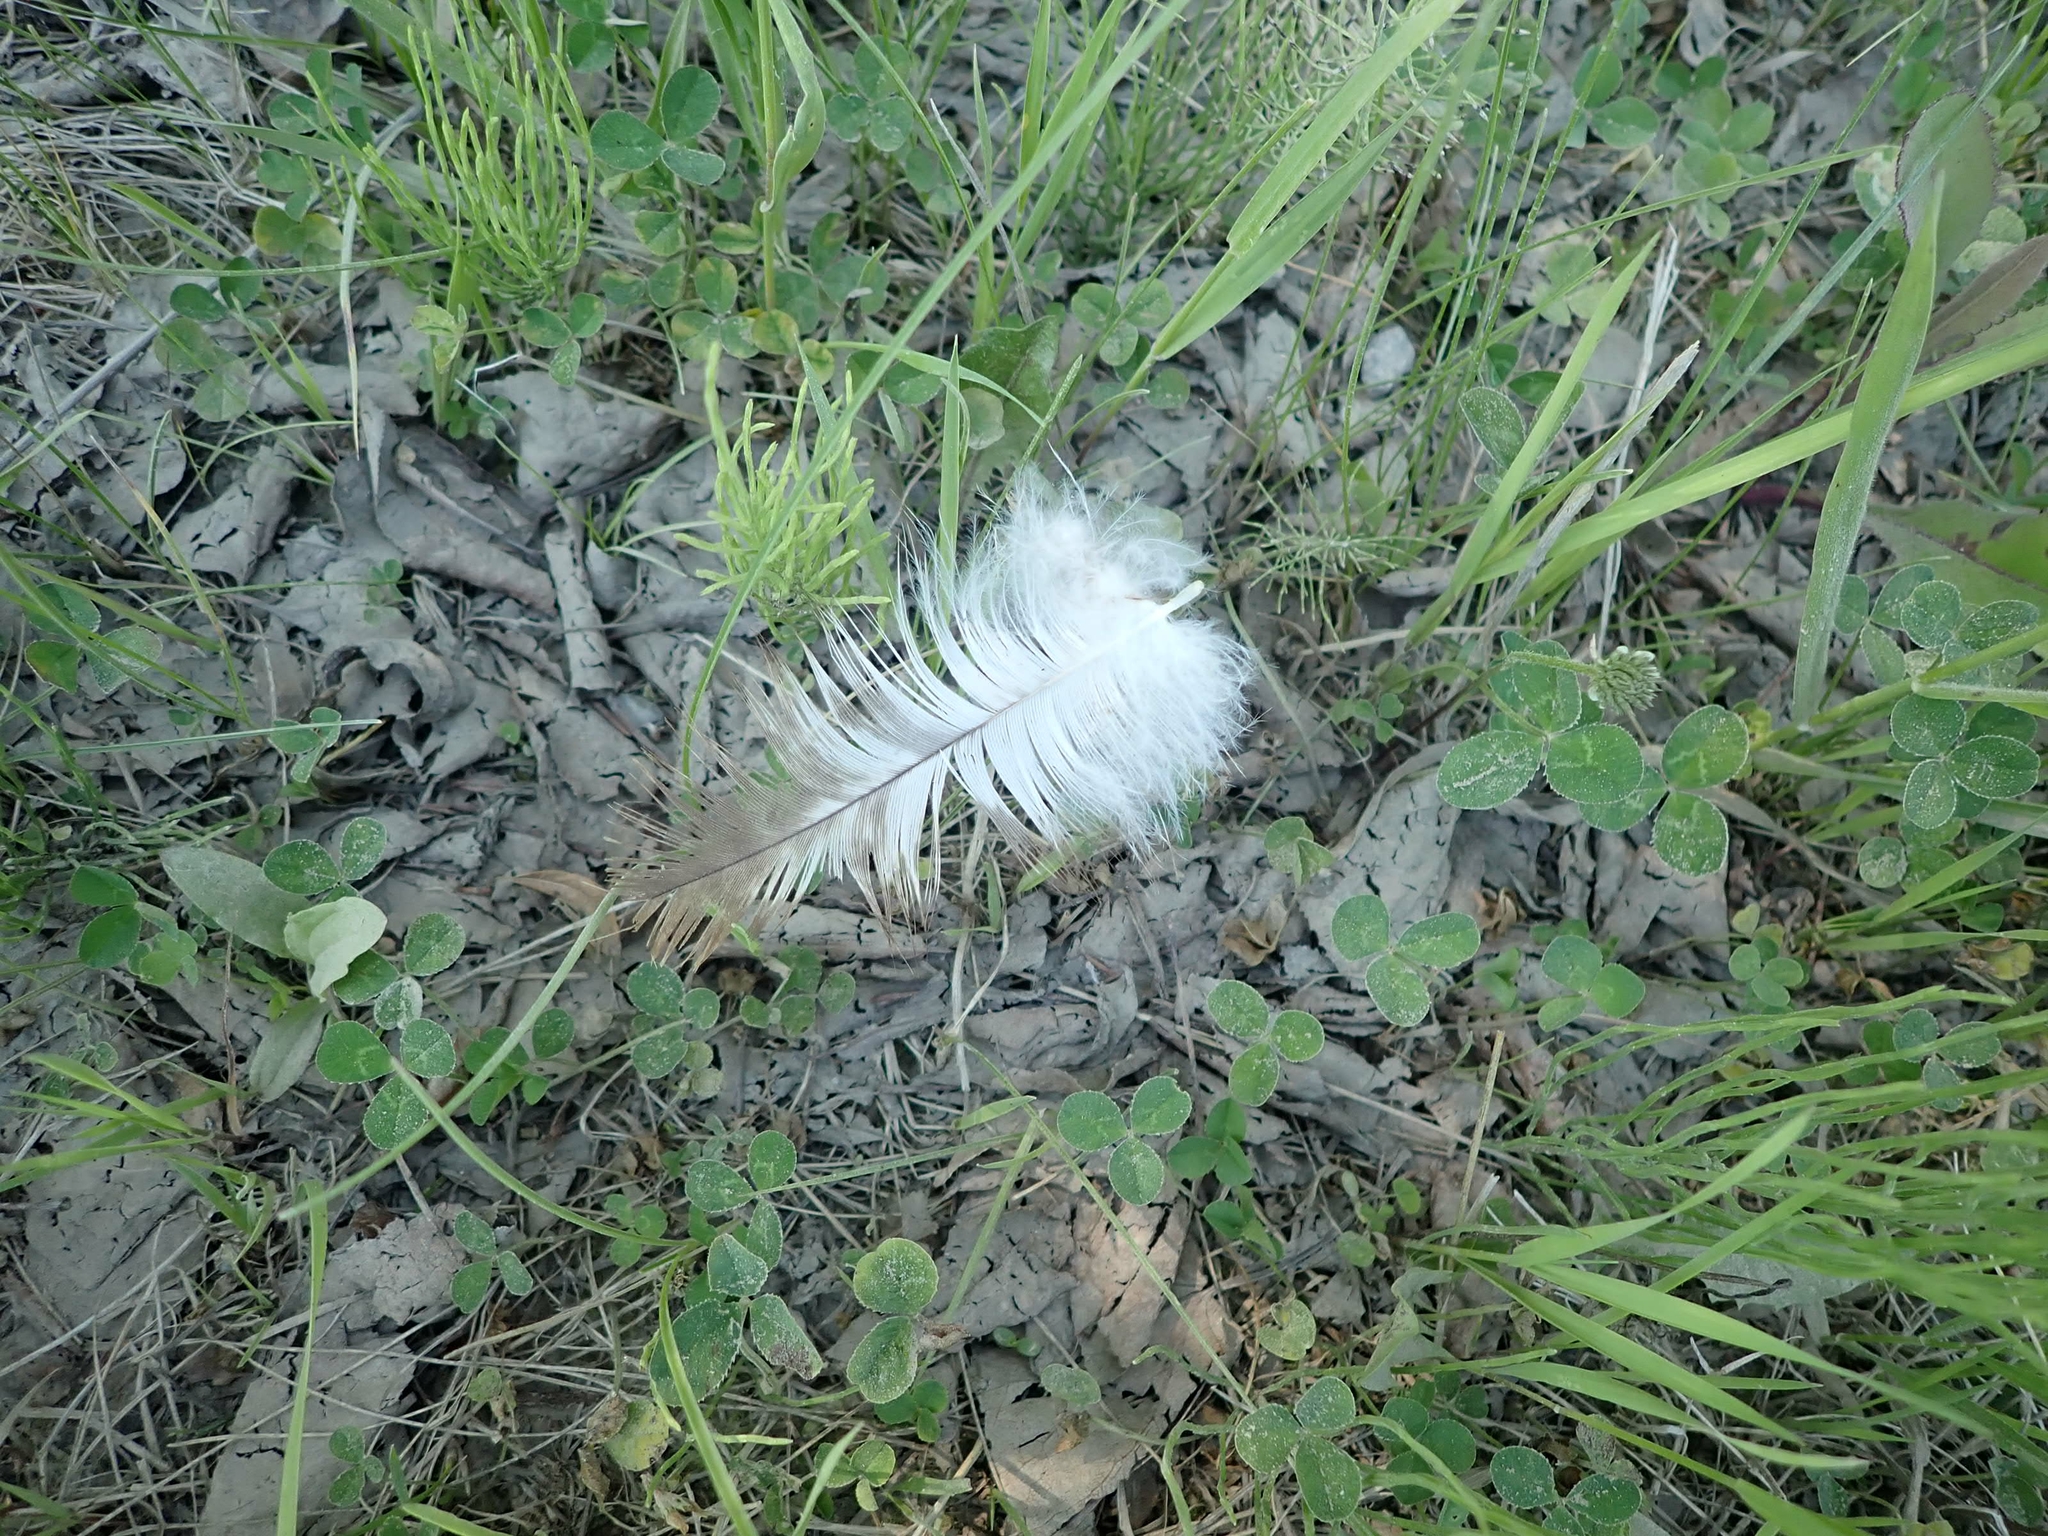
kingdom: Animalia
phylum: Chordata
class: Aves
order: Accipitriformes
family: Accipitridae
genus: Haliaeetus
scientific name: Haliaeetus leucocephalus
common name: Bald eagle
